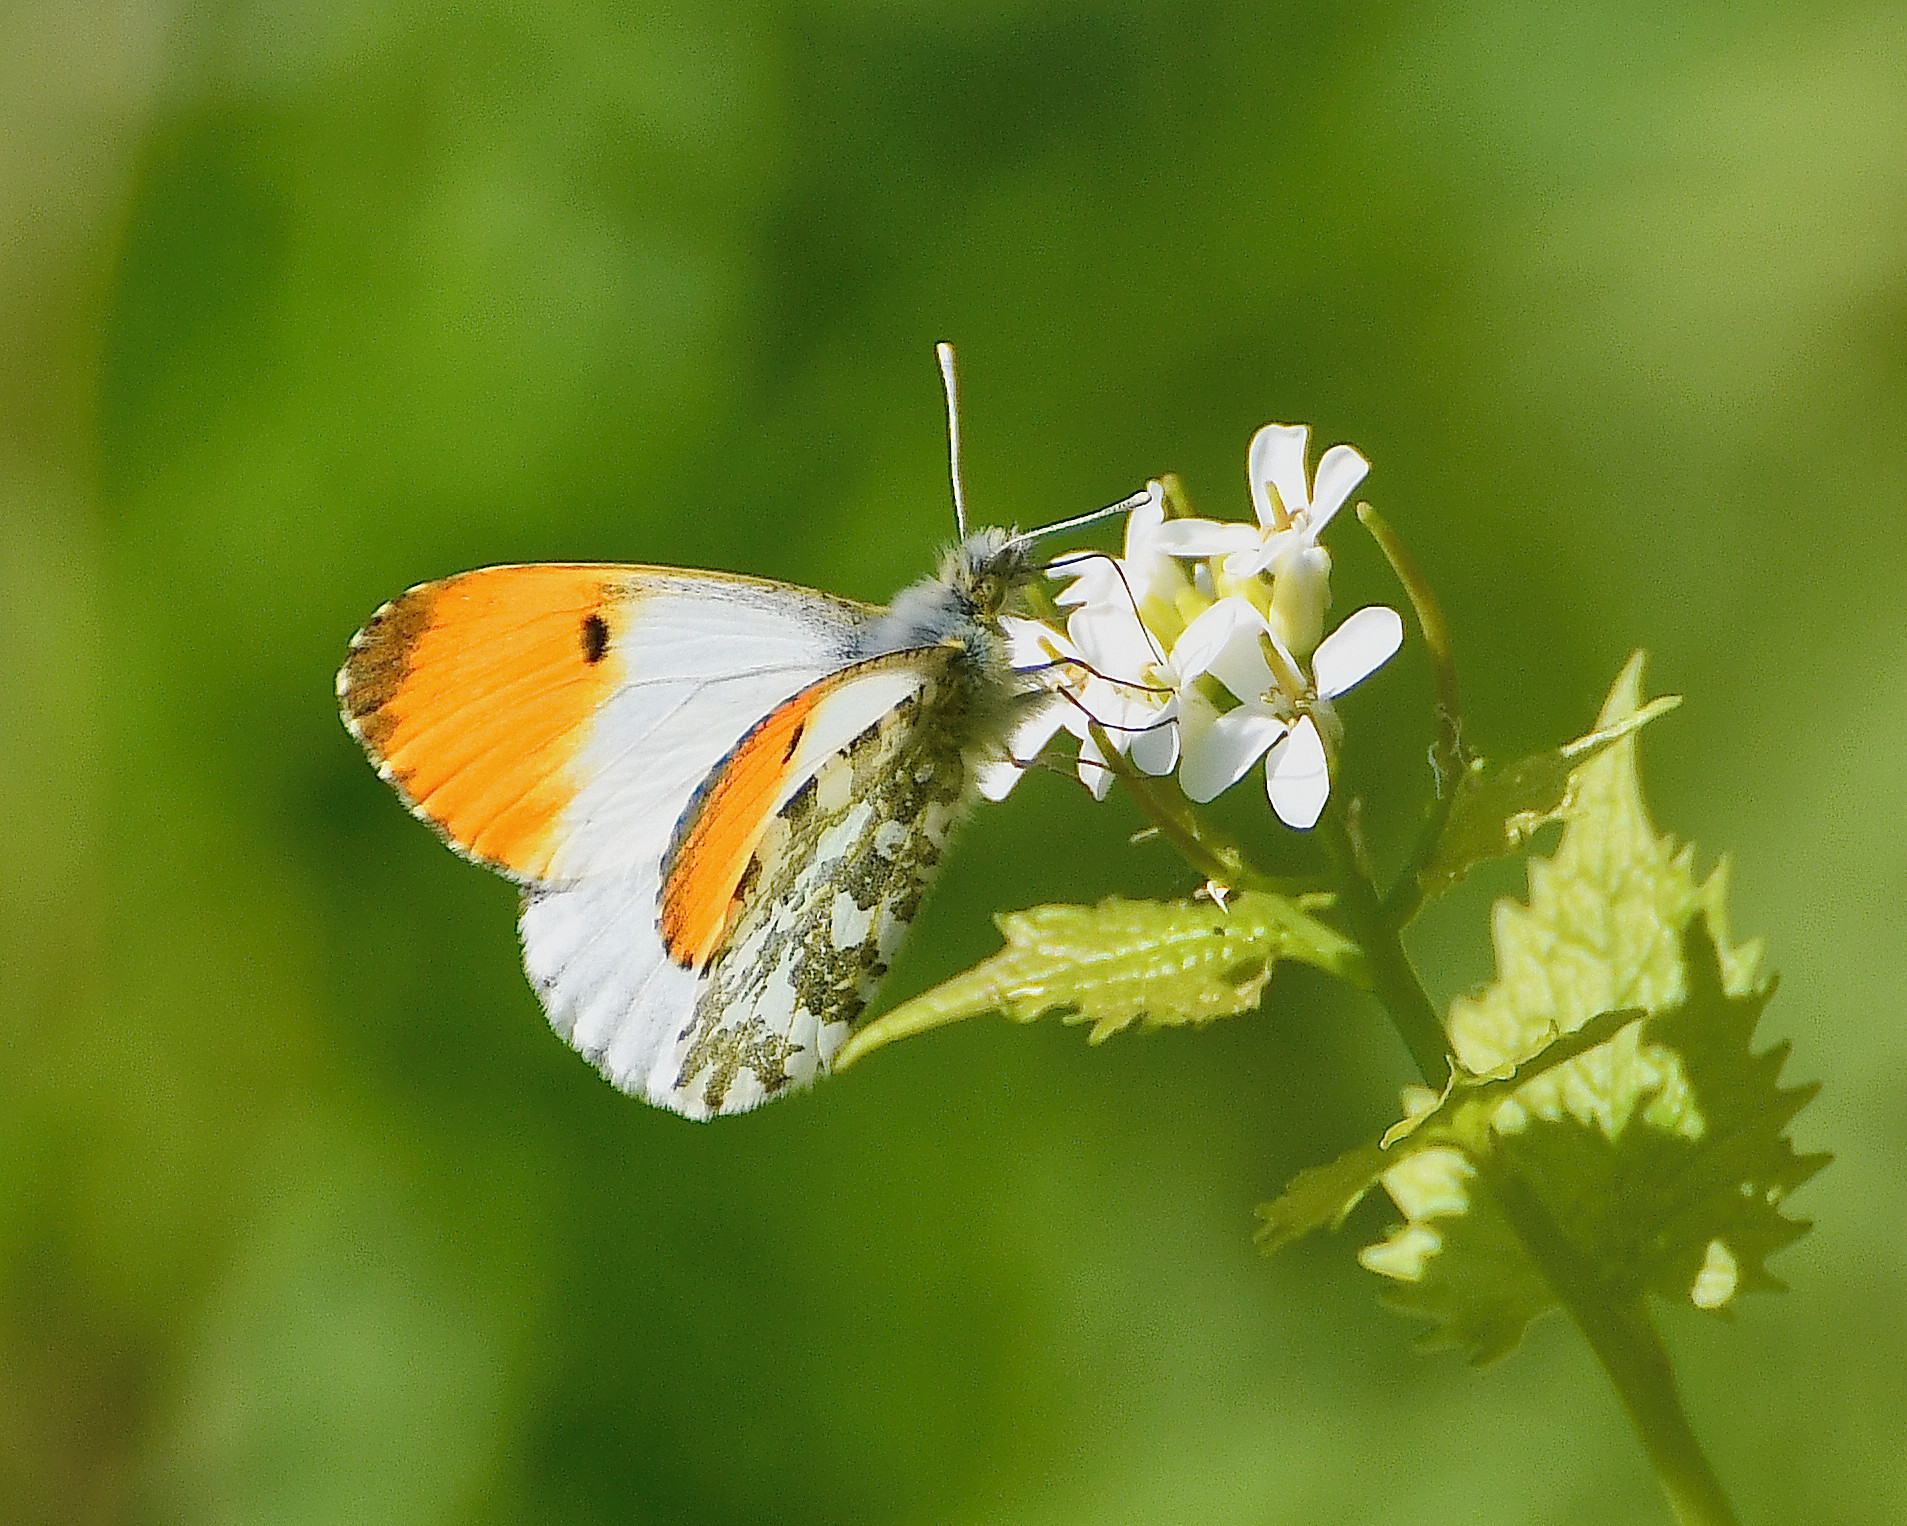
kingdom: Animalia
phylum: Arthropoda
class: Insecta
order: Lepidoptera
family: Pieridae
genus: Anthocharis
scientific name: Anthocharis cardamines
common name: Orange-tip
